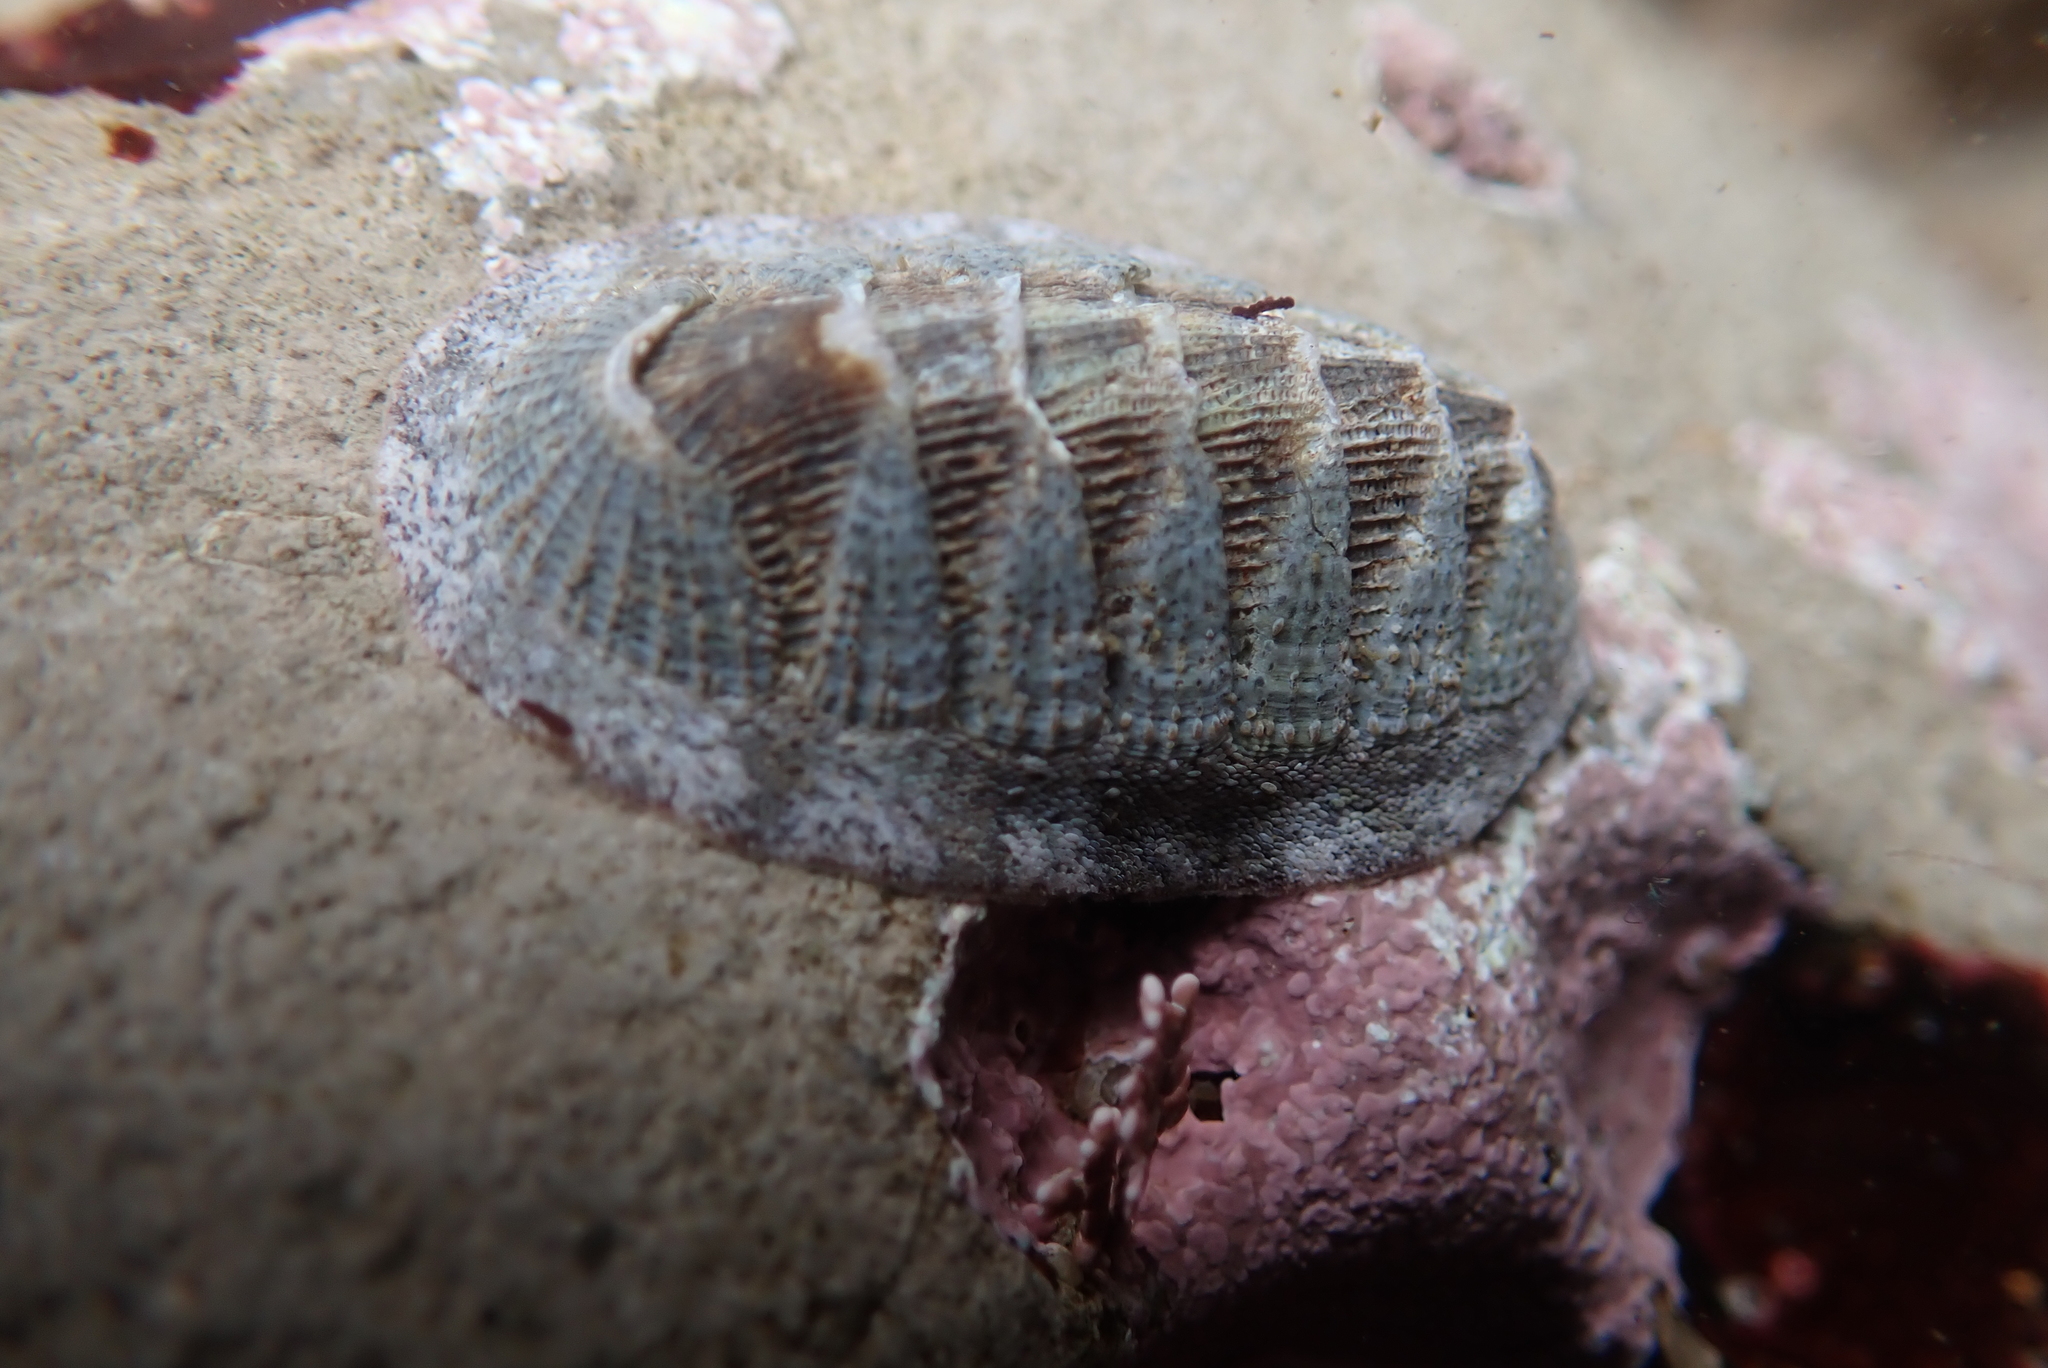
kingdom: Animalia
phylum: Mollusca
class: Polyplacophora
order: Chitonida
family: Ischnochitonidae
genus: Lepidozona
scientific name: Lepidozona cooperi
